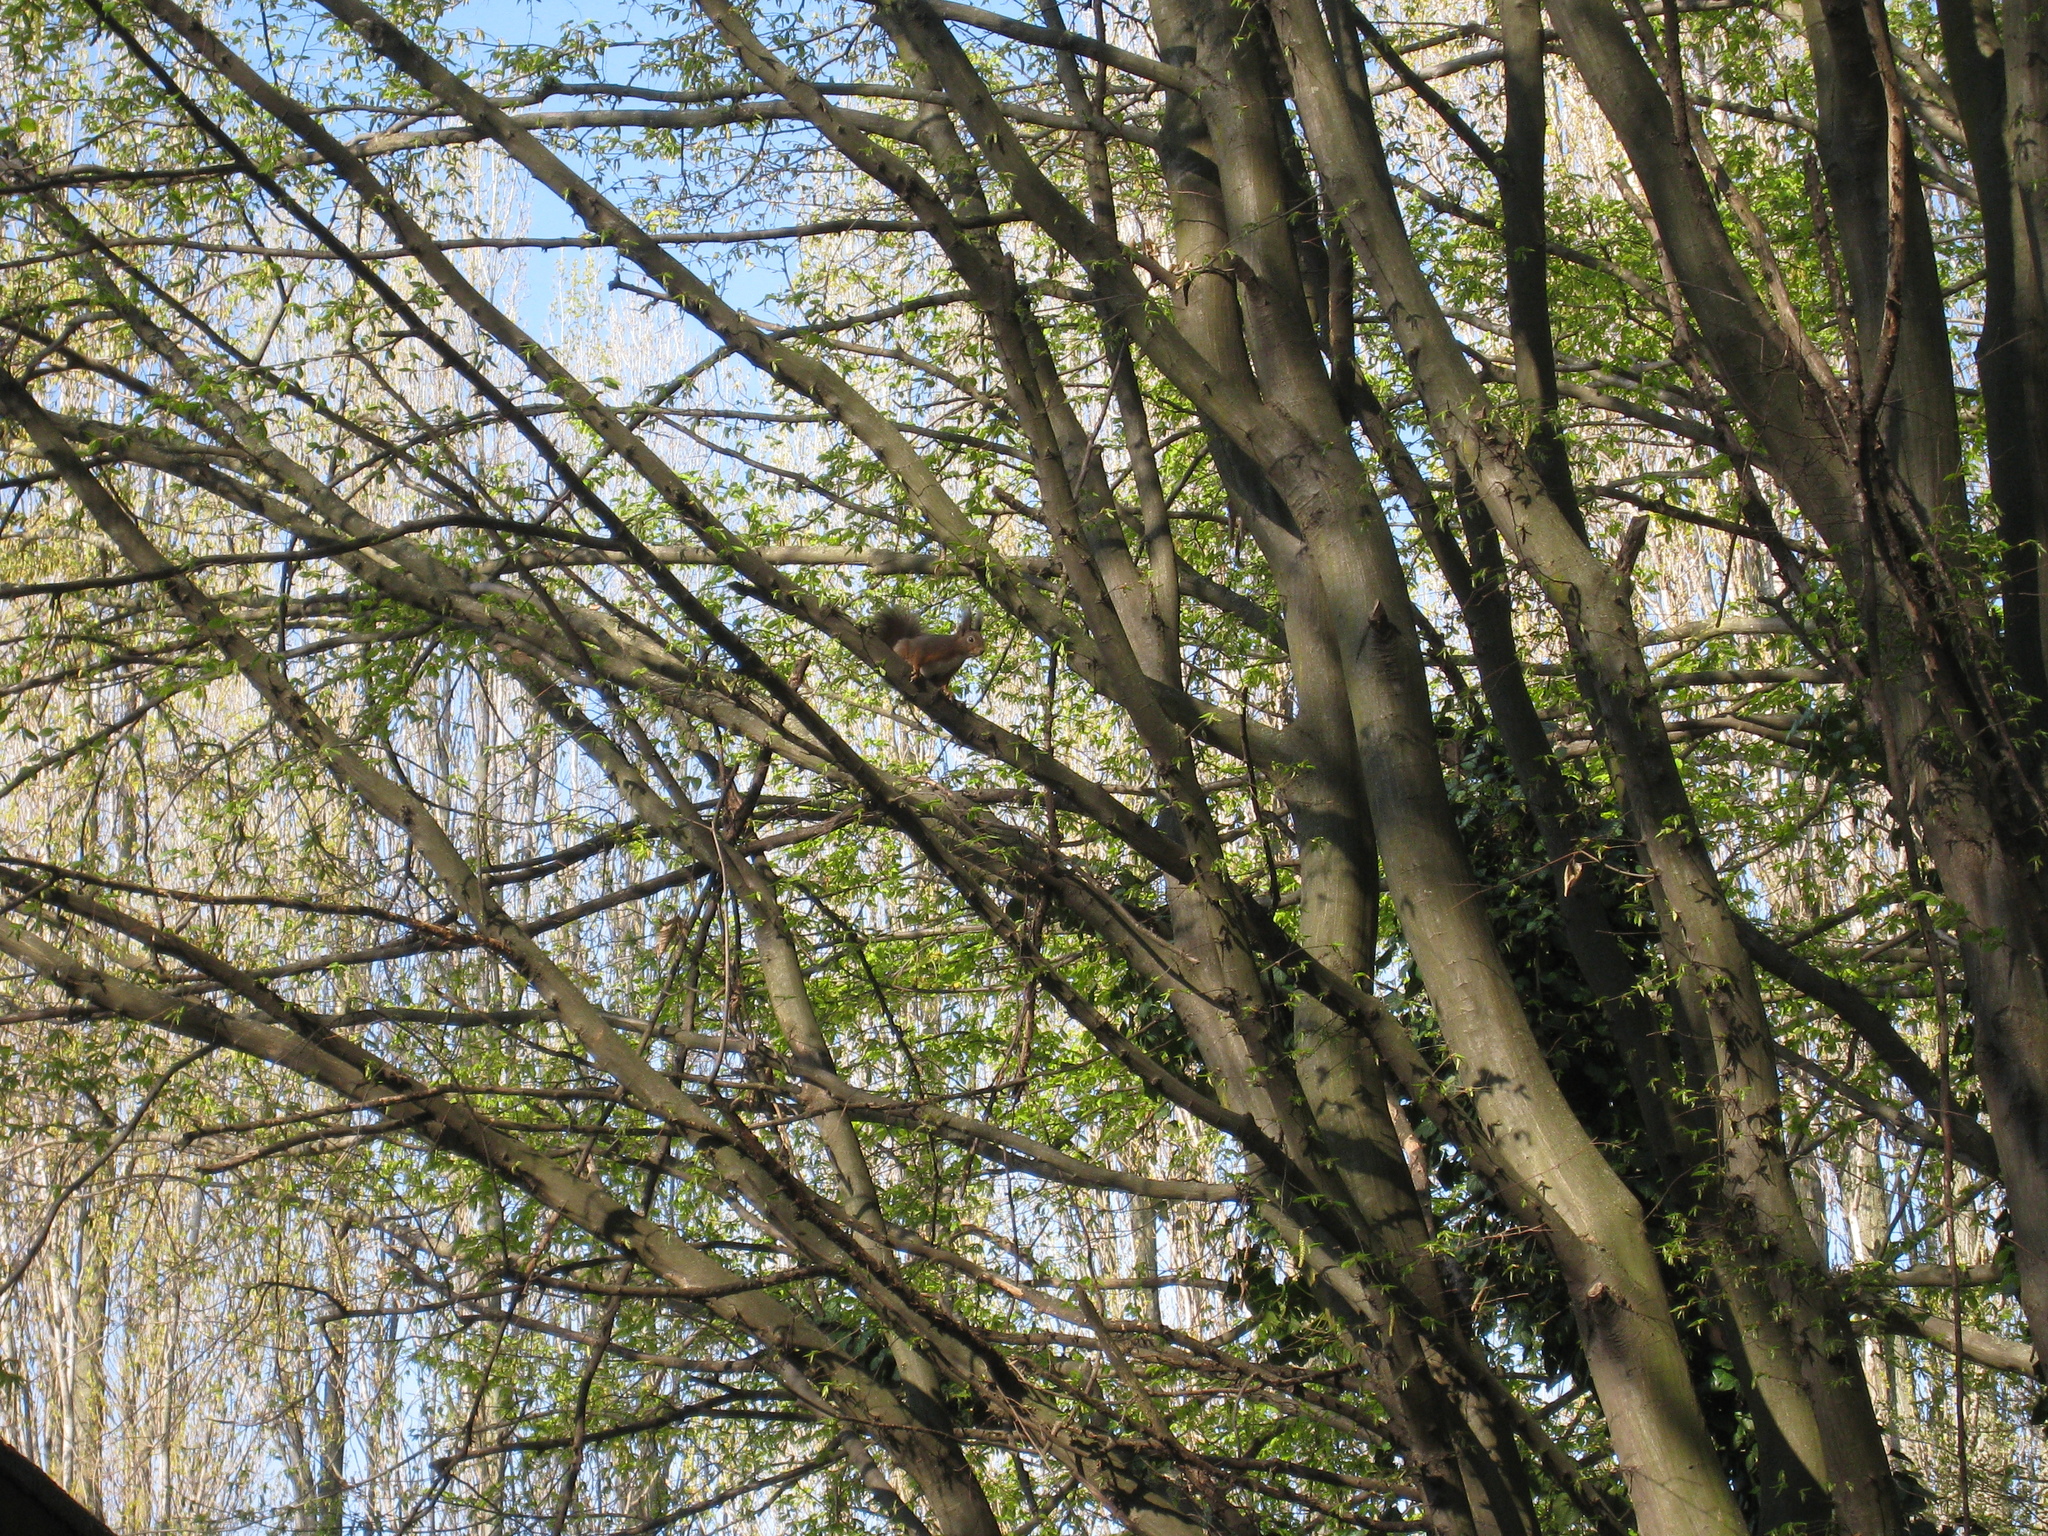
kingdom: Animalia
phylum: Chordata
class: Mammalia
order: Rodentia
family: Sciuridae
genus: Sciurus
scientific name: Sciurus vulgaris
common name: Eurasian red squirrel
